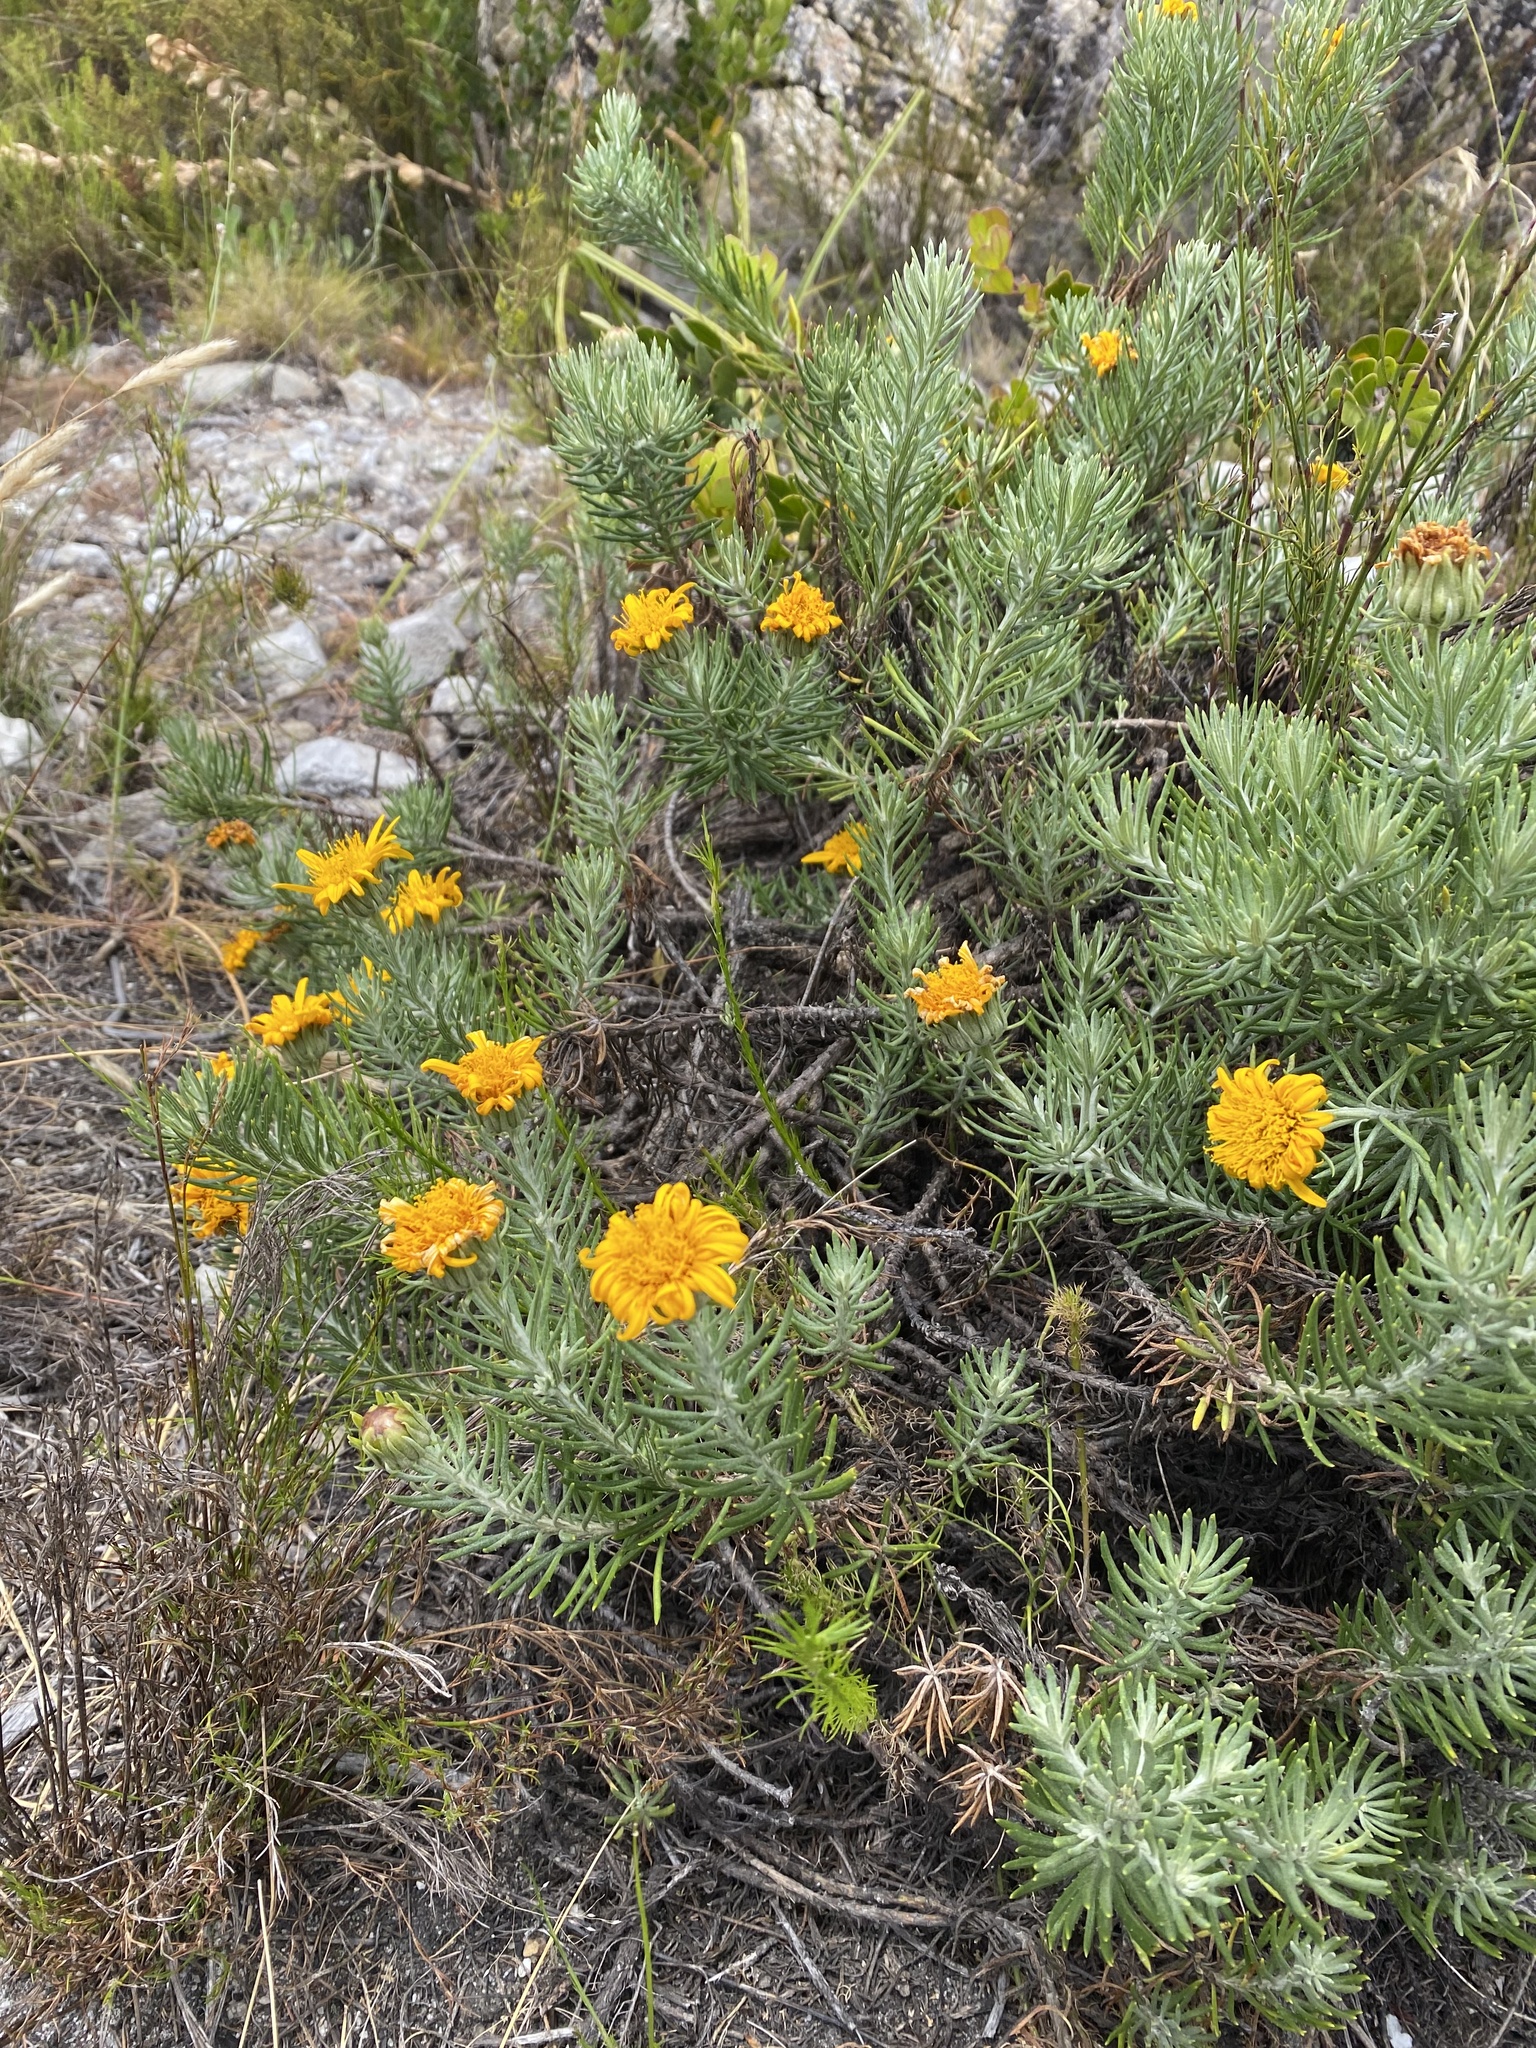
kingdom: Plantae
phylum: Tracheophyta
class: Magnoliopsida
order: Asterales
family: Asteraceae
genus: Heterolepis
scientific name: Heterolepis aliena
